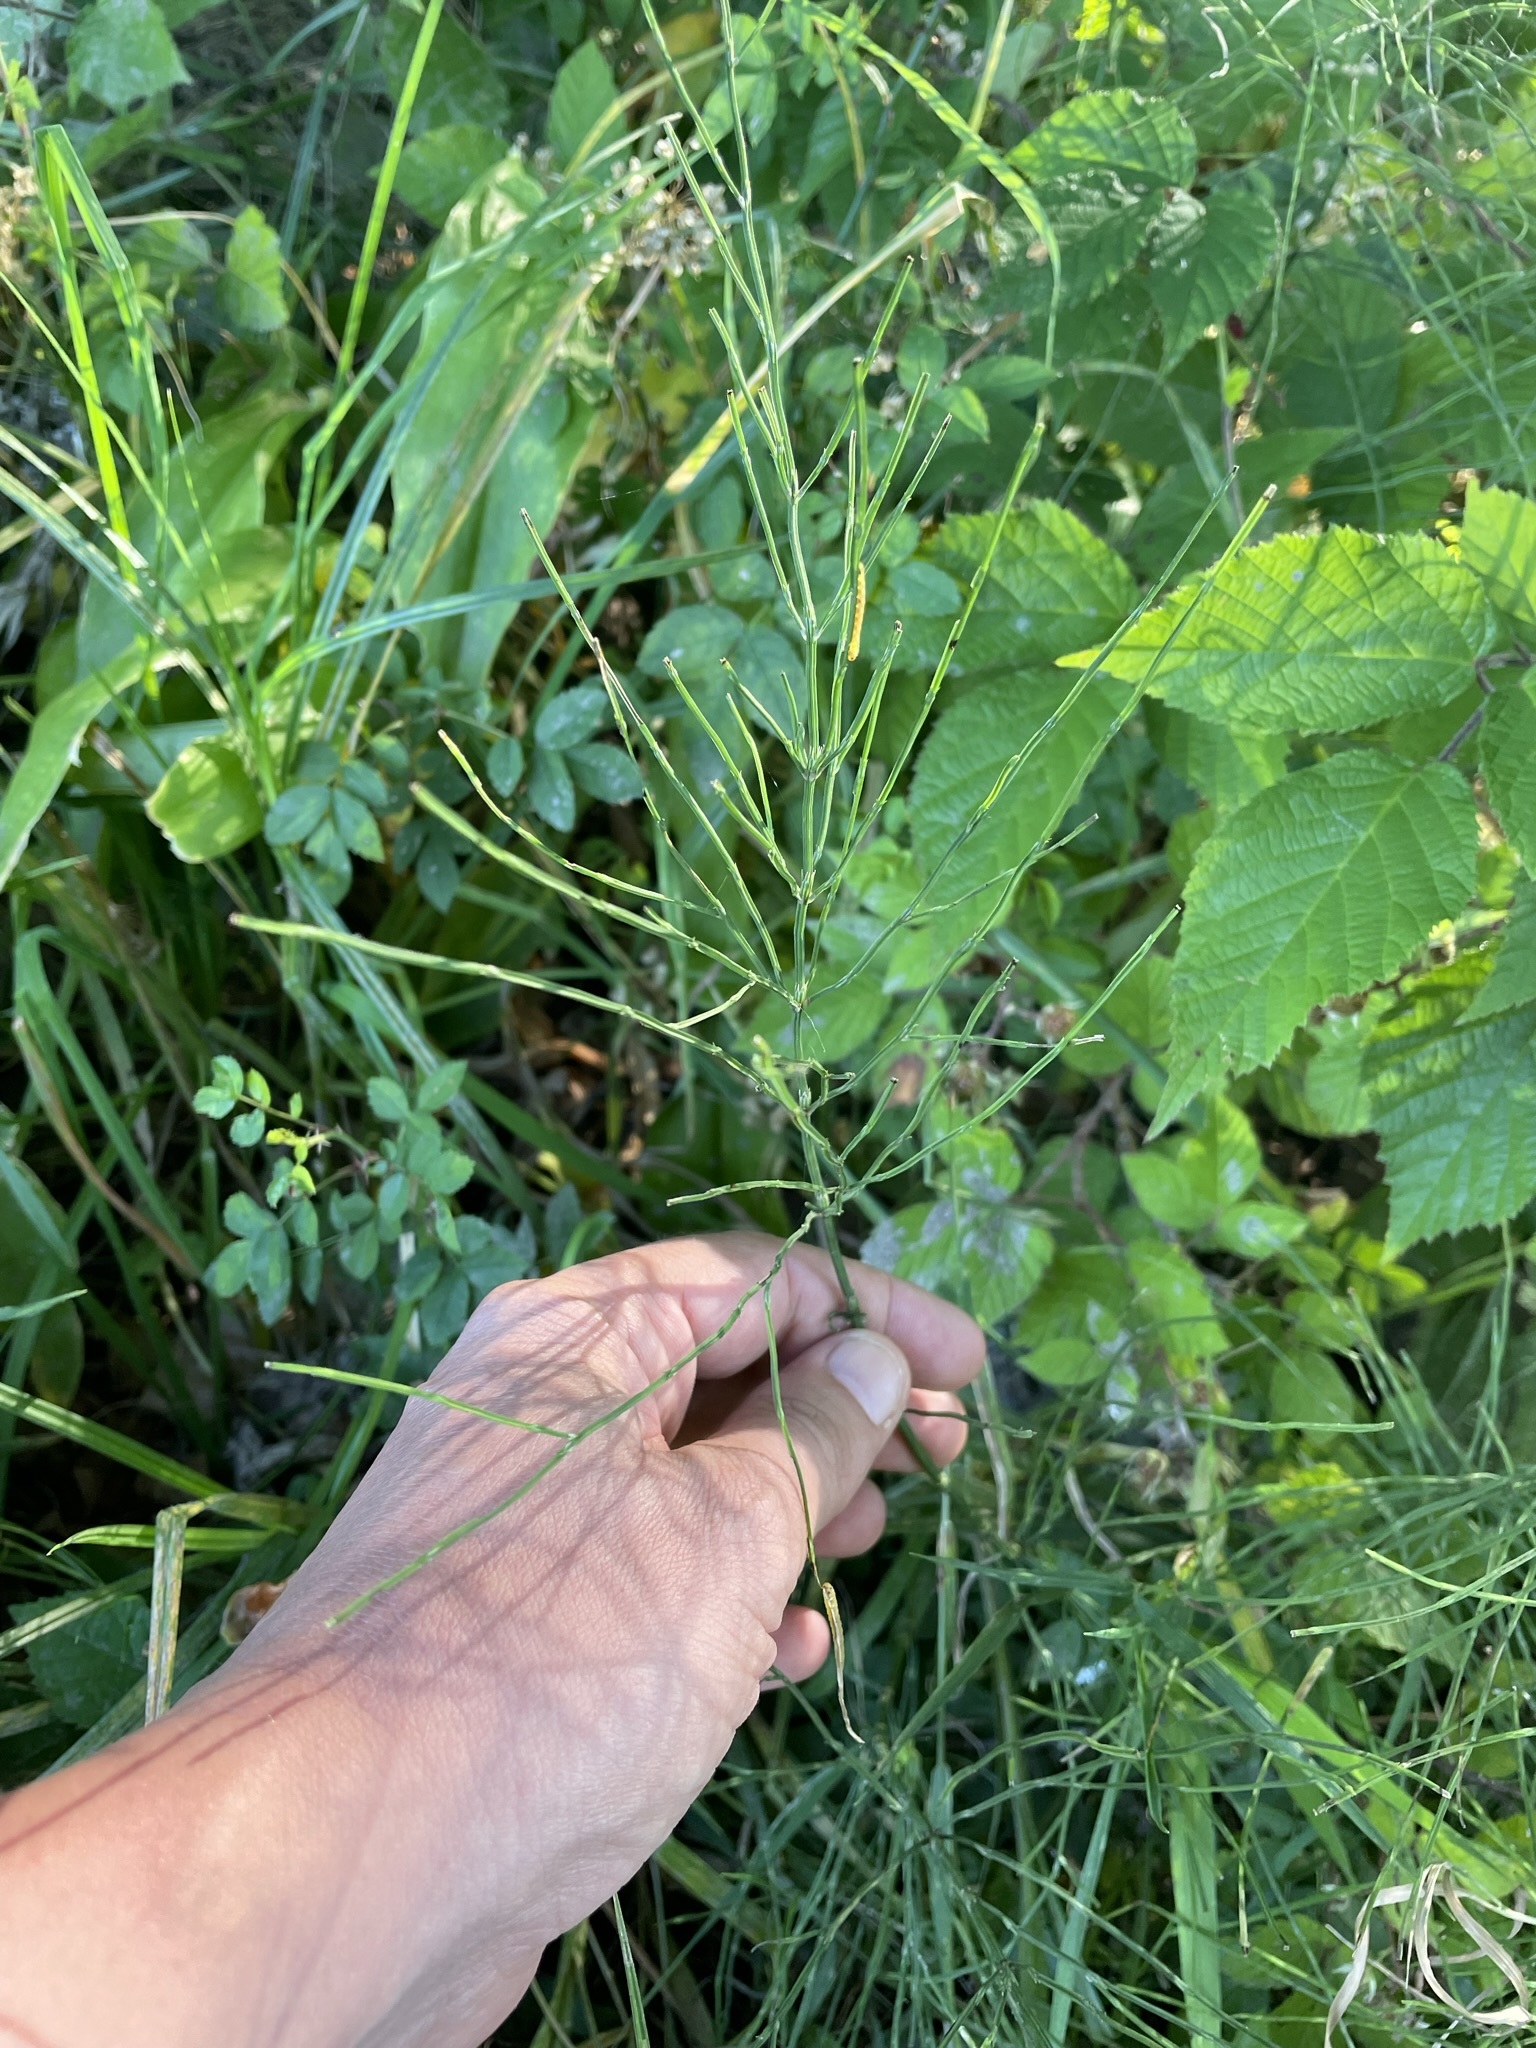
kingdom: Plantae
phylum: Tracheophyta
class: Polypodiopsida
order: Equisetales
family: Equisetaceae
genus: Equisetum
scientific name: Equisetum arvense
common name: Field horsetail
